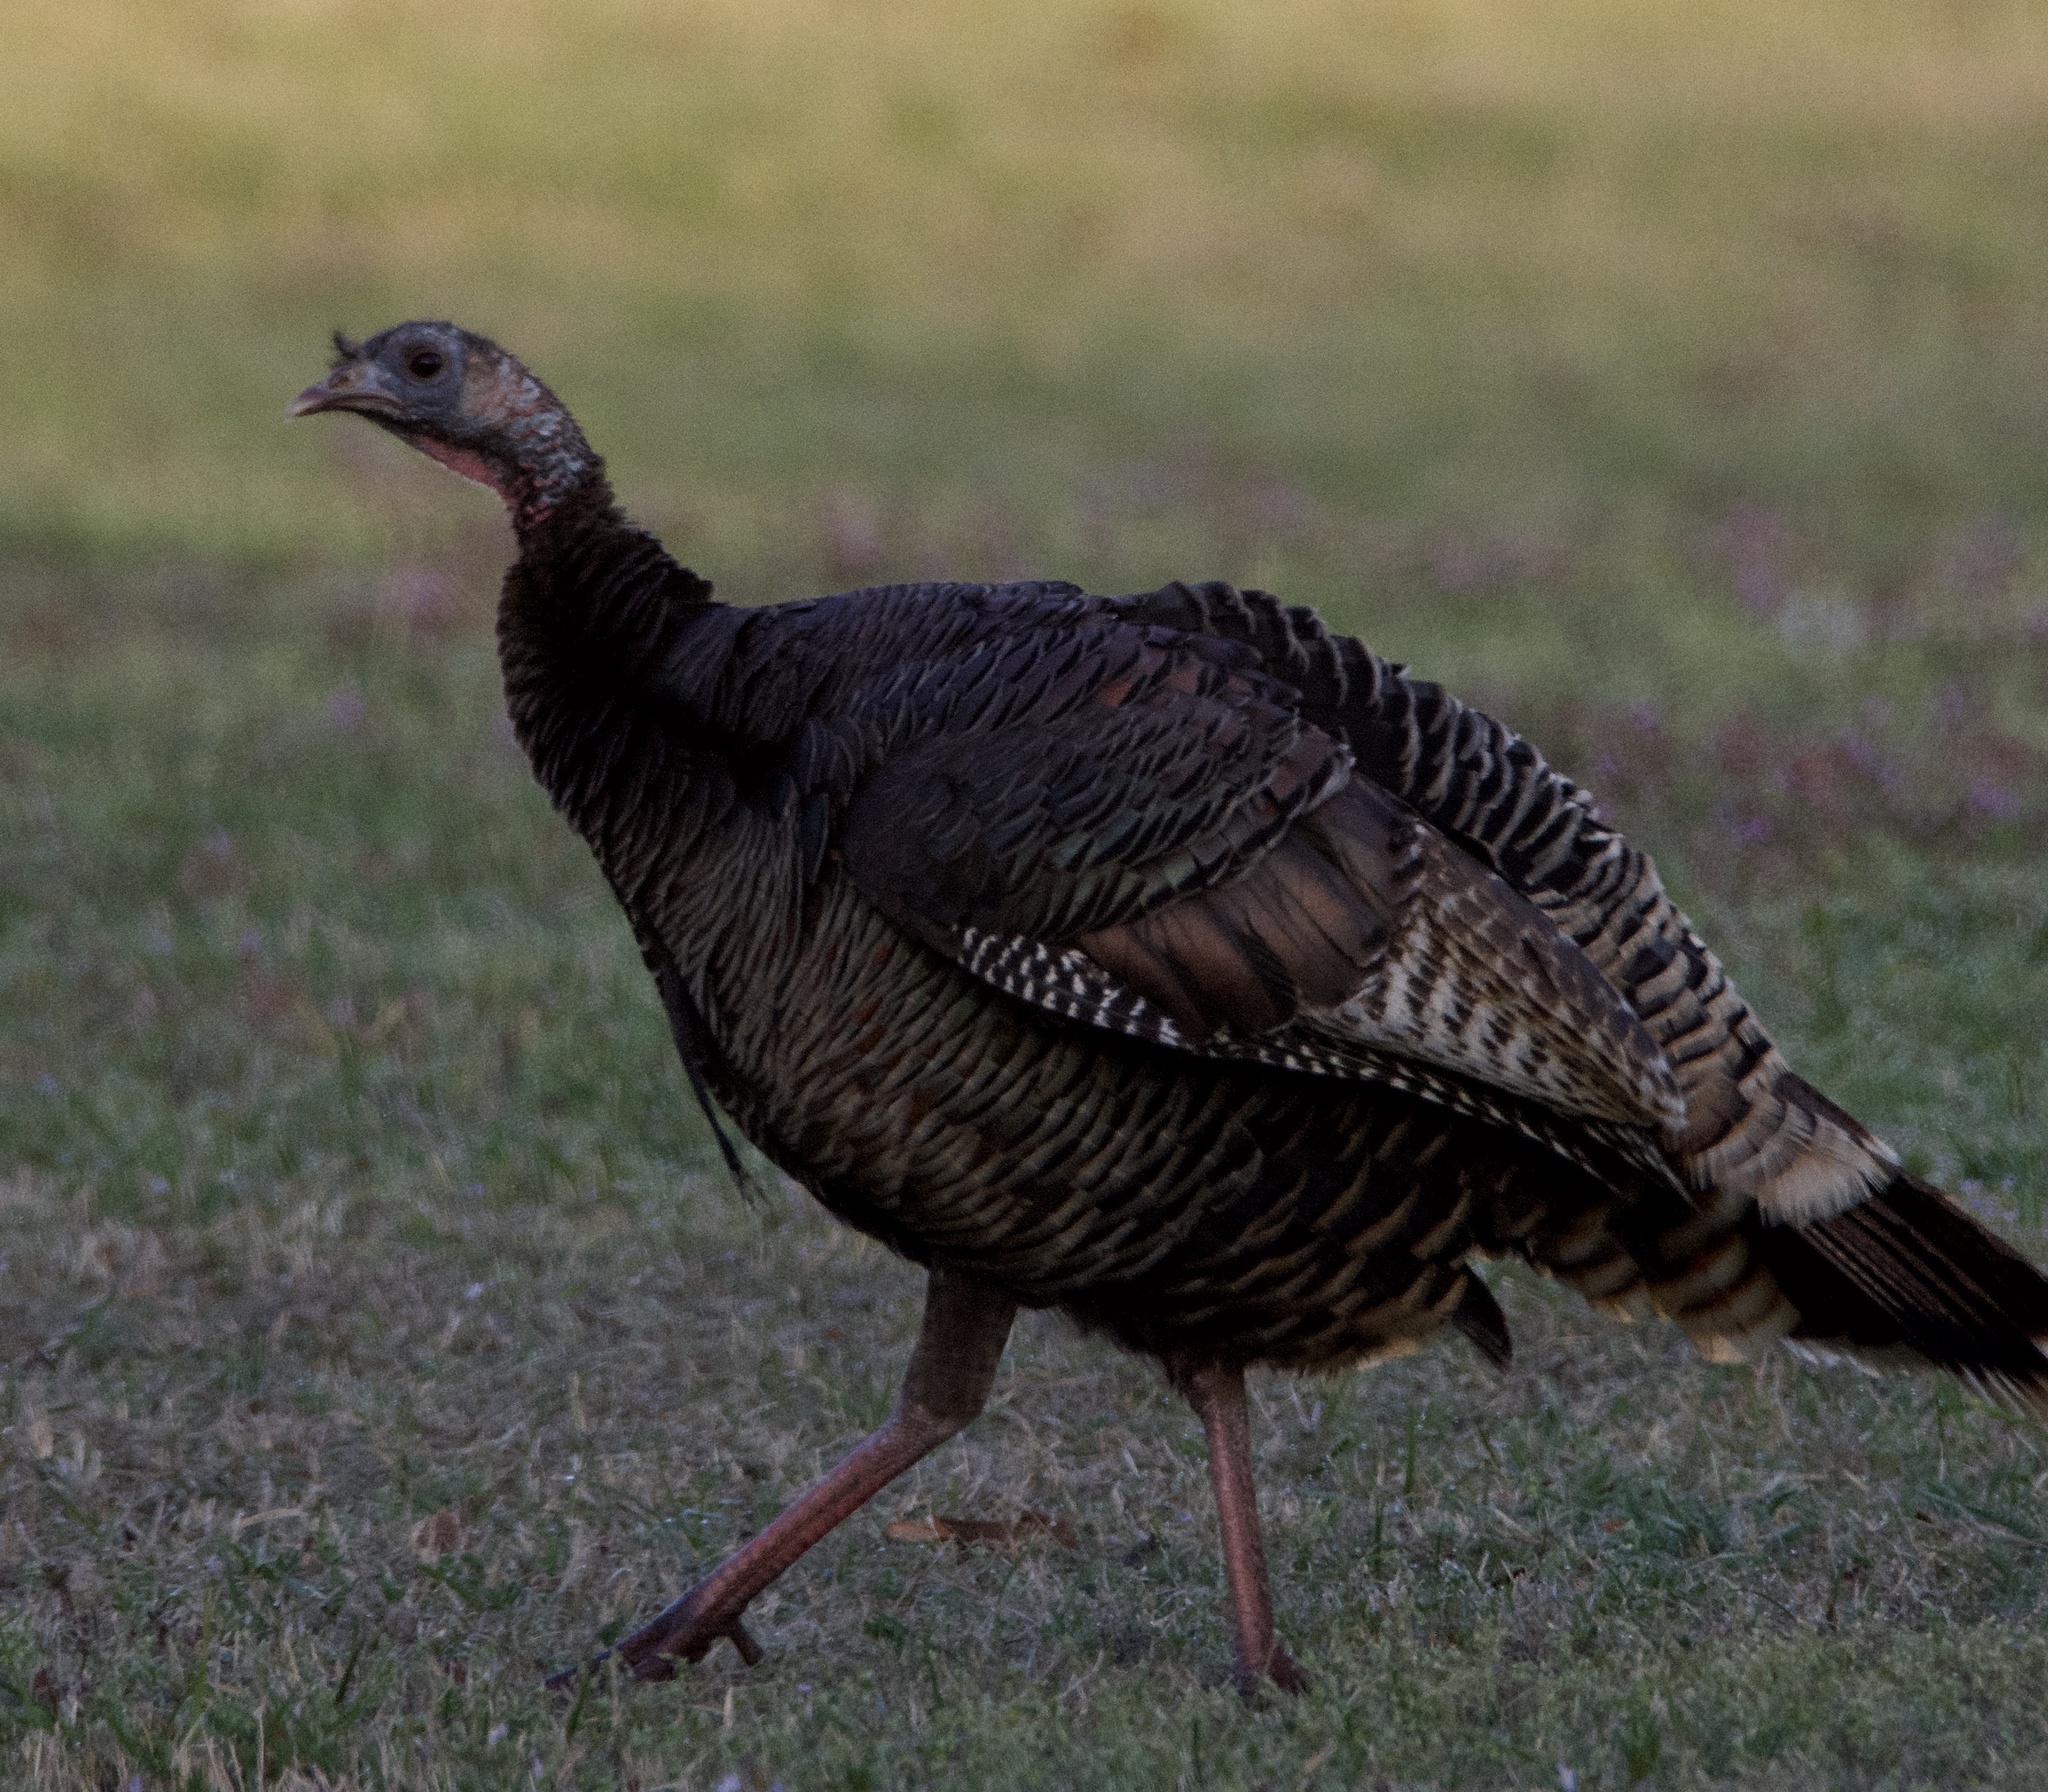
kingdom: Animalia
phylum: Chordata
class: Aves
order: Galliformes
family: Phasianidae
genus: Meleagris
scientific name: Meleagris gallopavo
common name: Wild turkey
